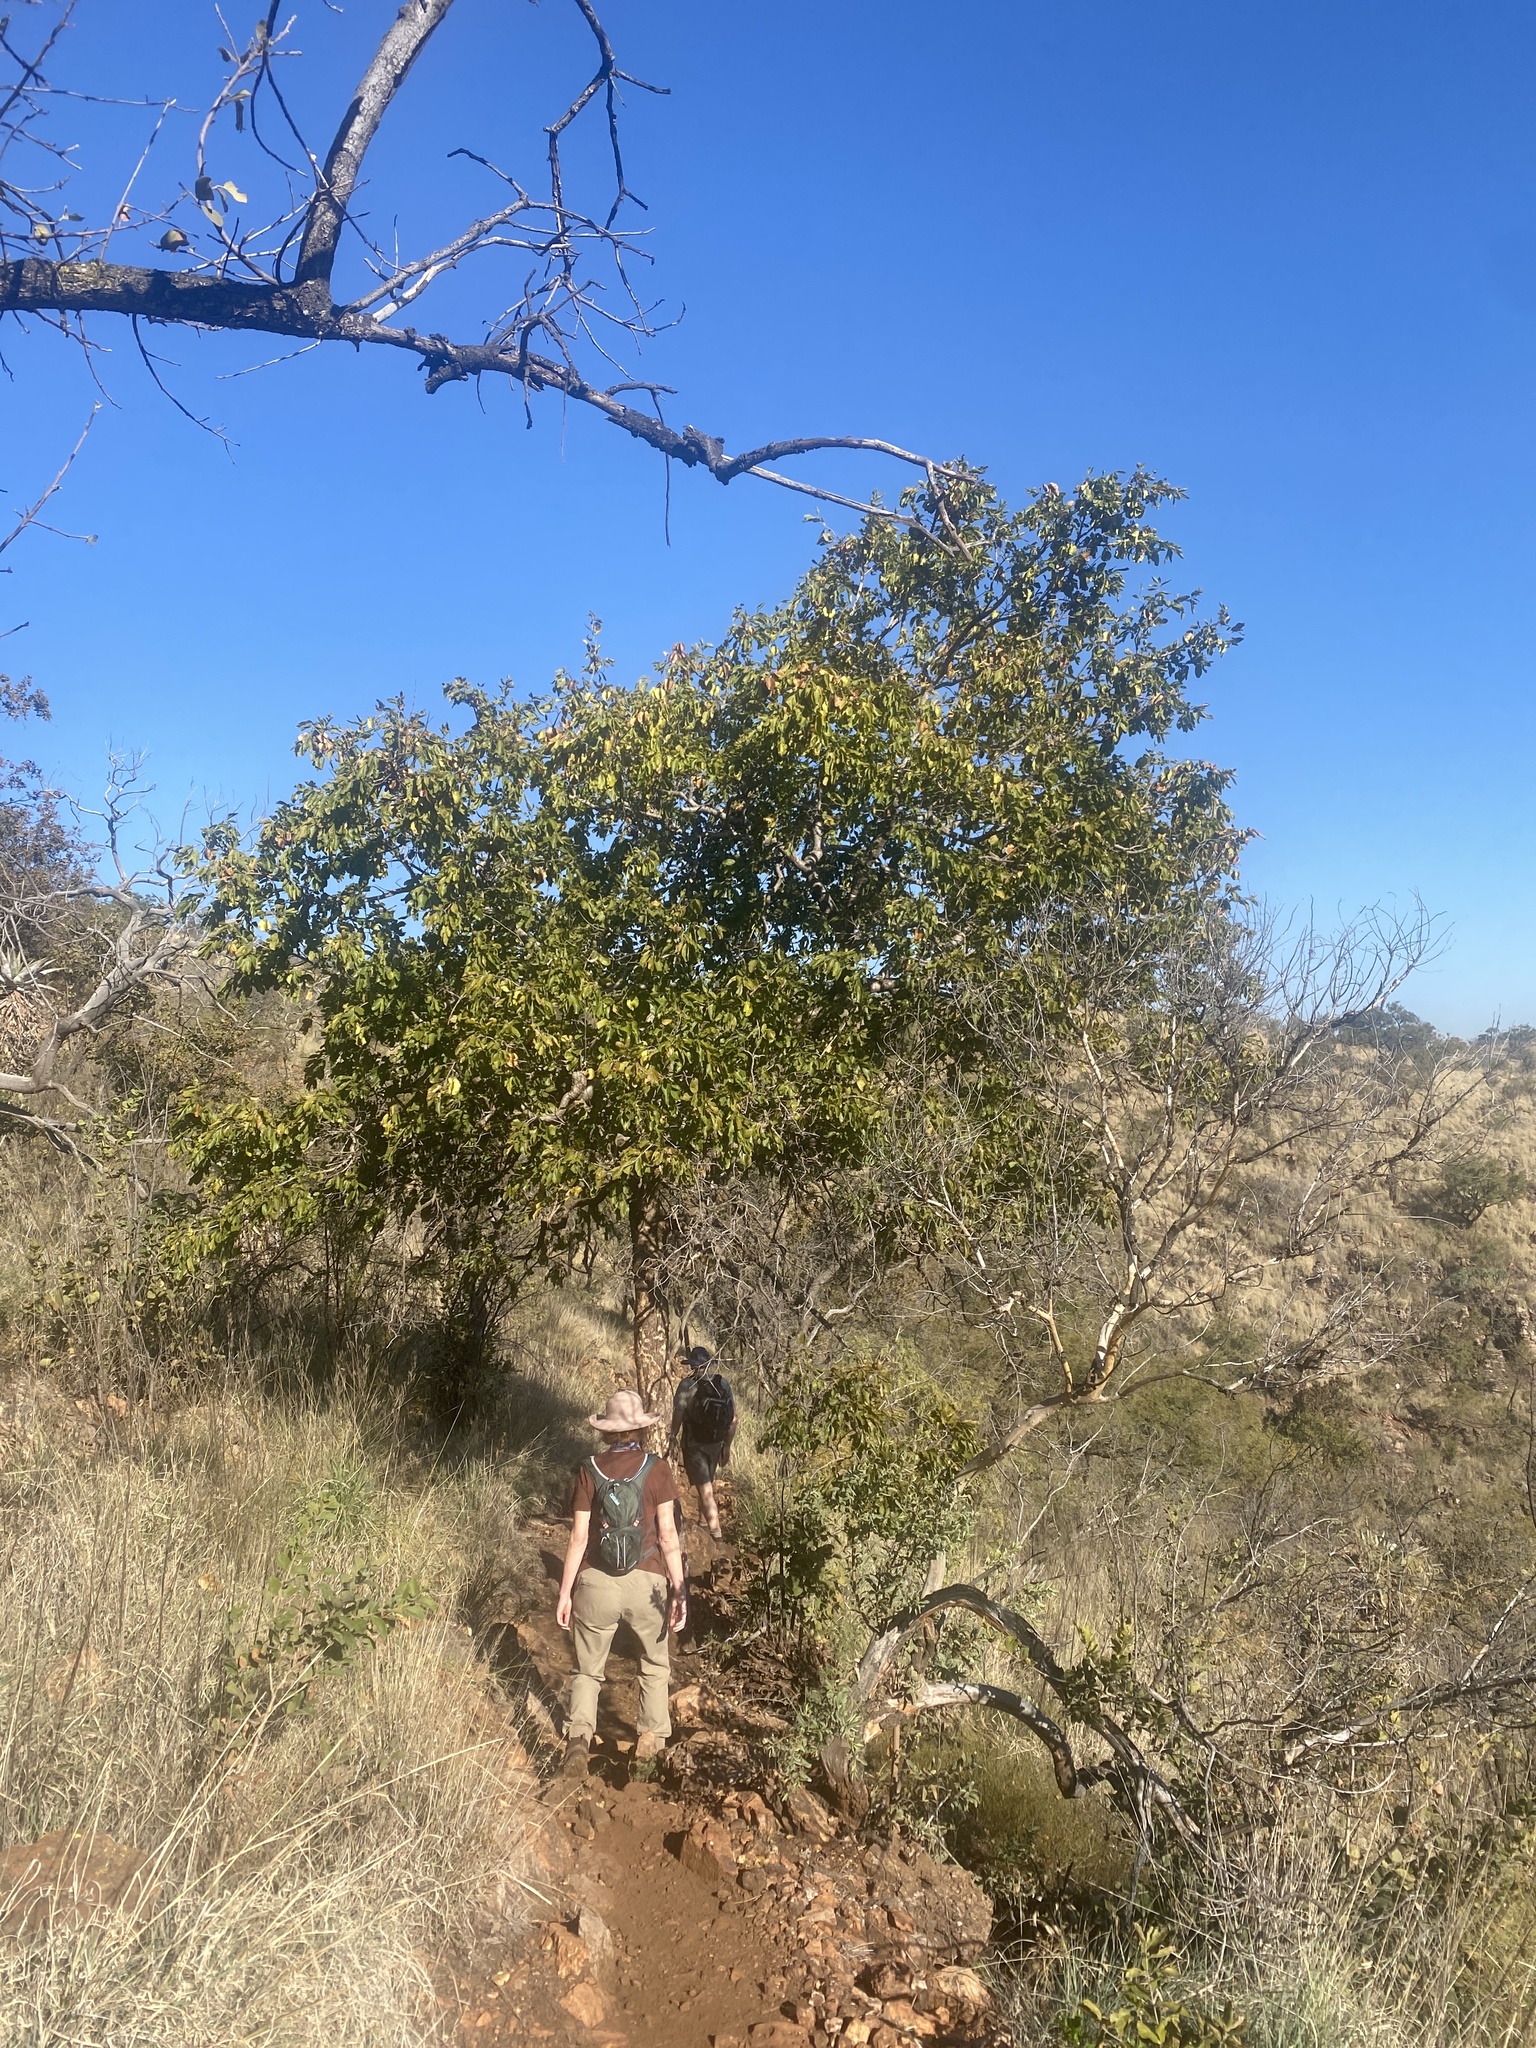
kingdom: Plantae
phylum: Tracheophyta
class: Magnoliopsida
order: Myrtales
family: Combretaceae
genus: Combretum
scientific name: Combretum zeyheri
